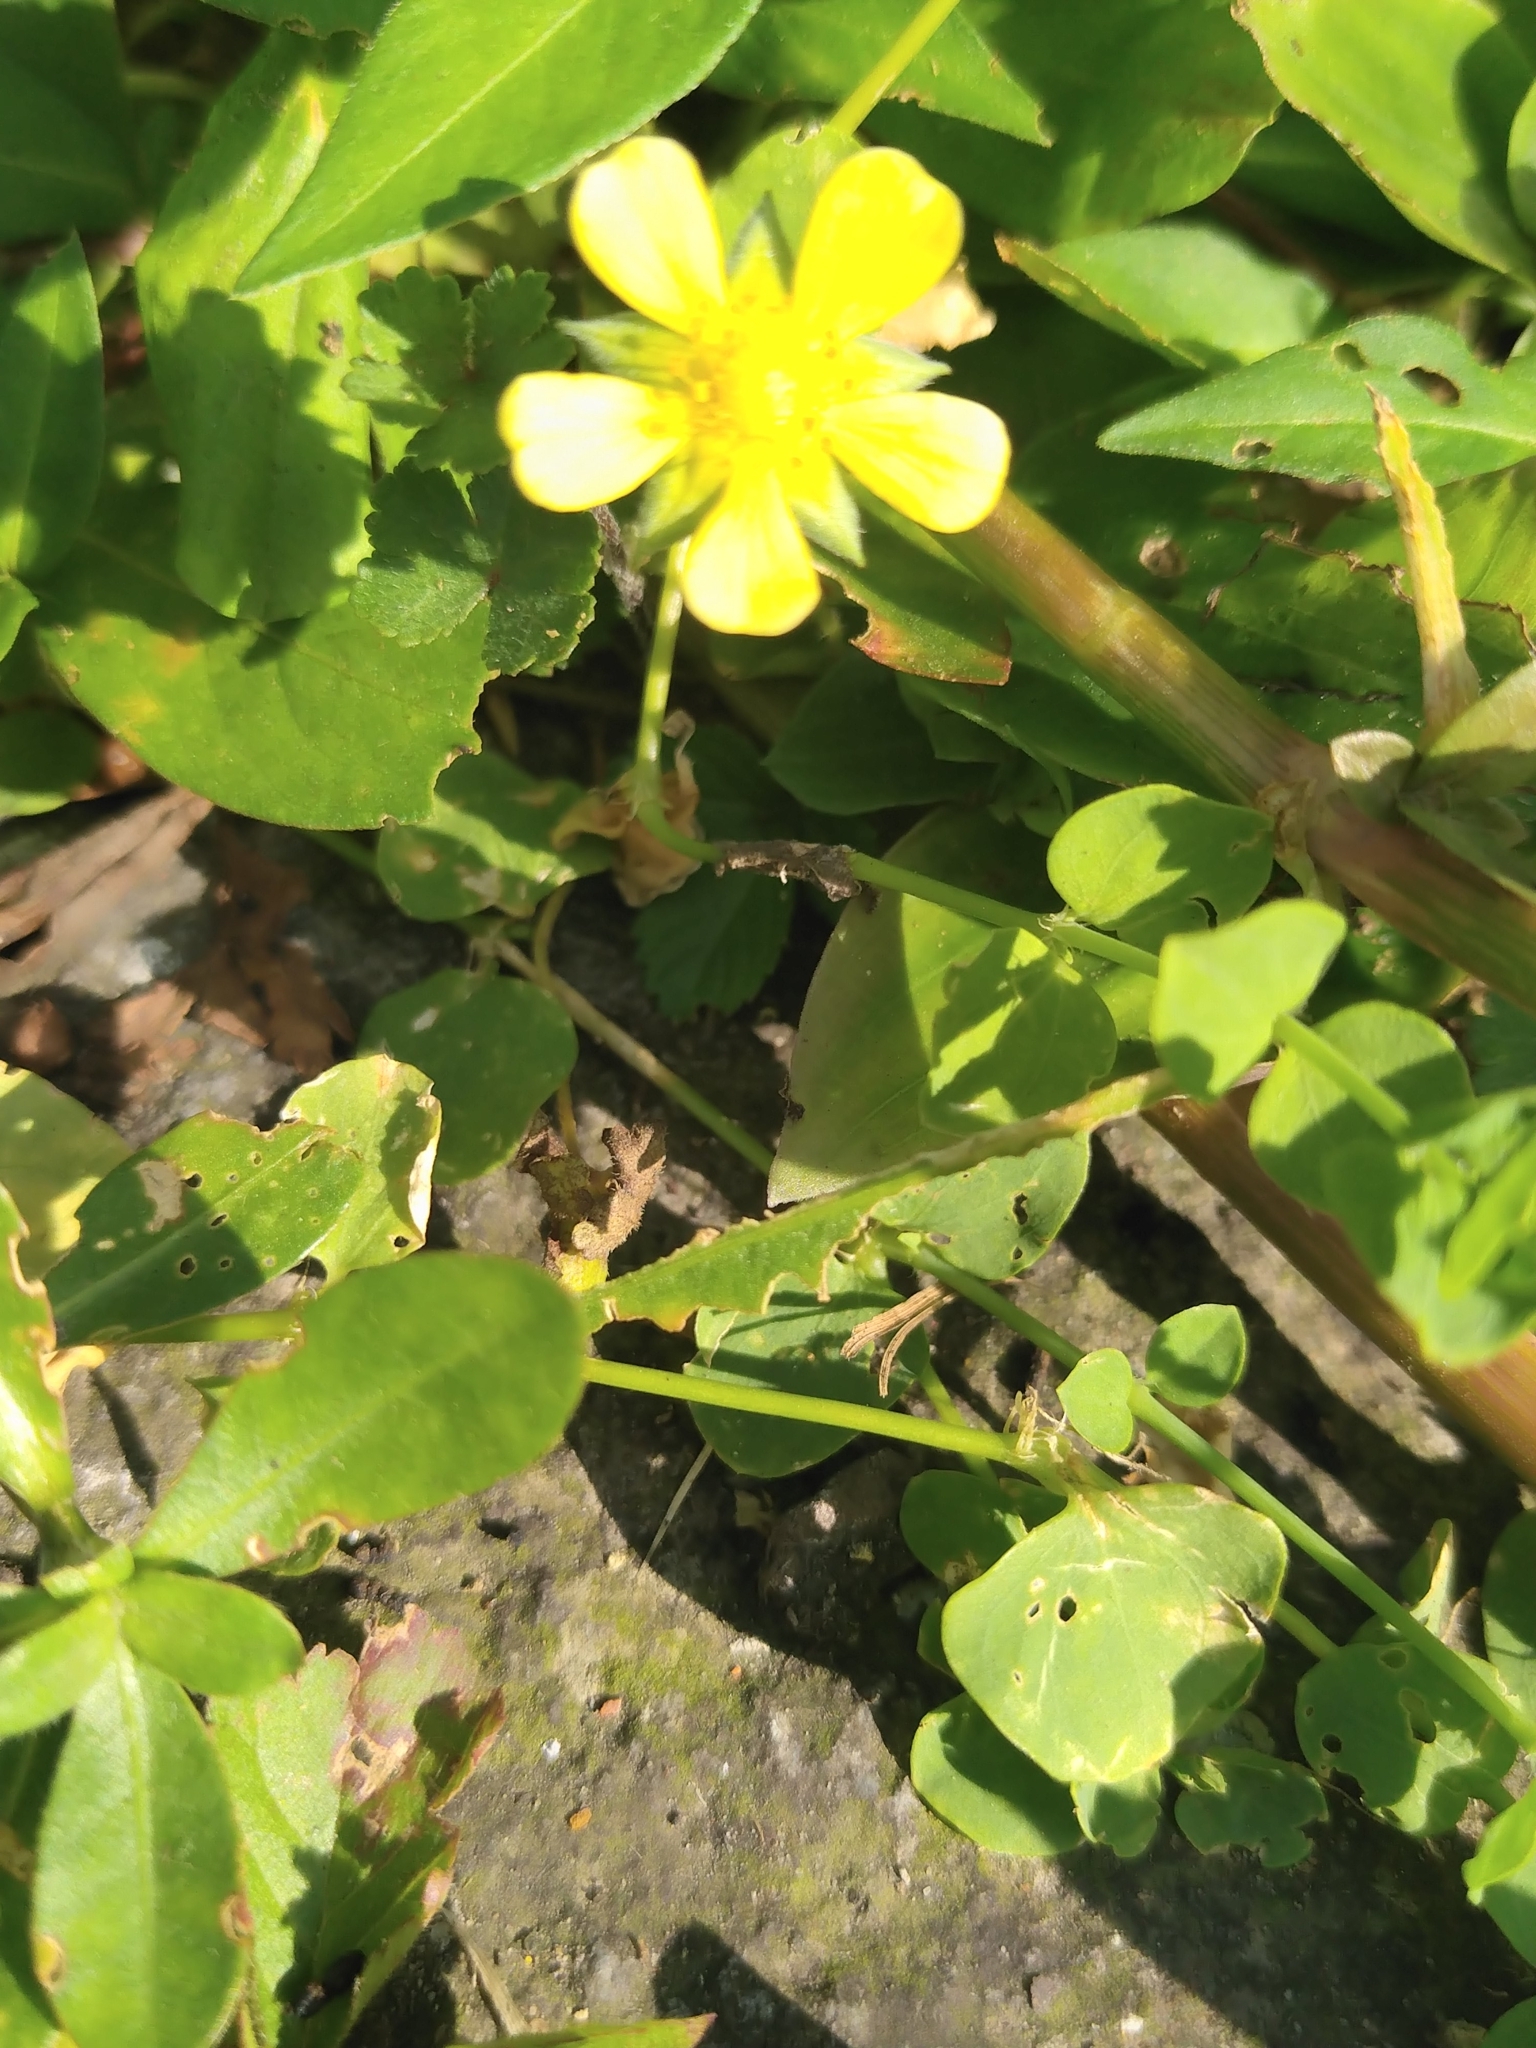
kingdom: Plantae
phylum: Tracheophyta
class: Magnoliopsida
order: Rosales
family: Rosaceae
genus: Potentilla
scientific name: Potentilla wallichiana
